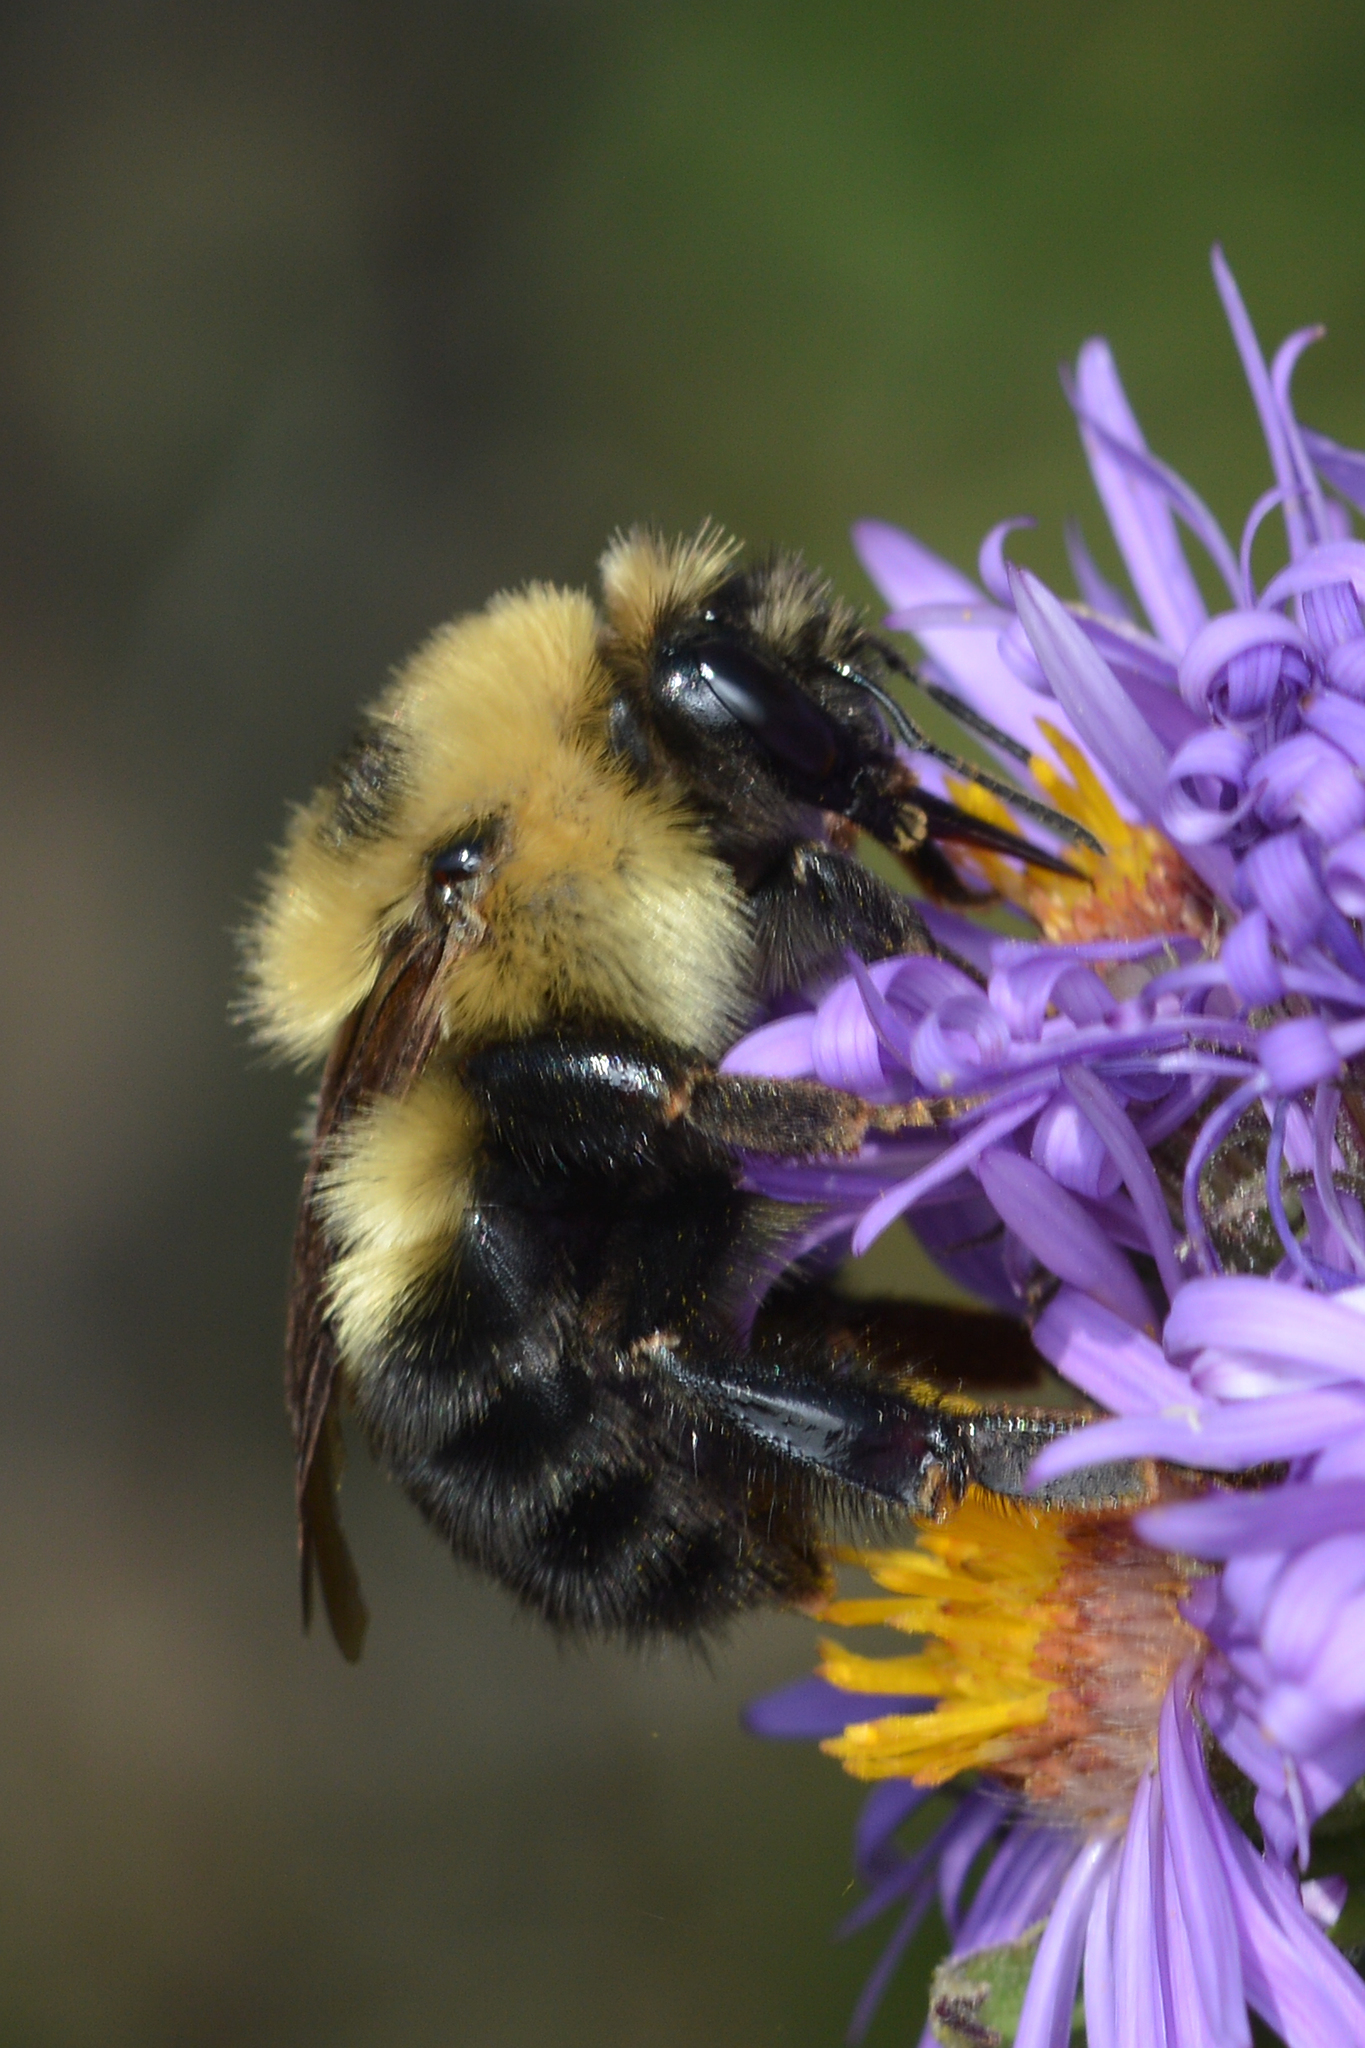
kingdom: Animalia
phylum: Arthropoda
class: Insecta
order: Hymenoptera
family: Apidae
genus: Bombus
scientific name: Bombus rufocinctus
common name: Red-belted bumble bee
